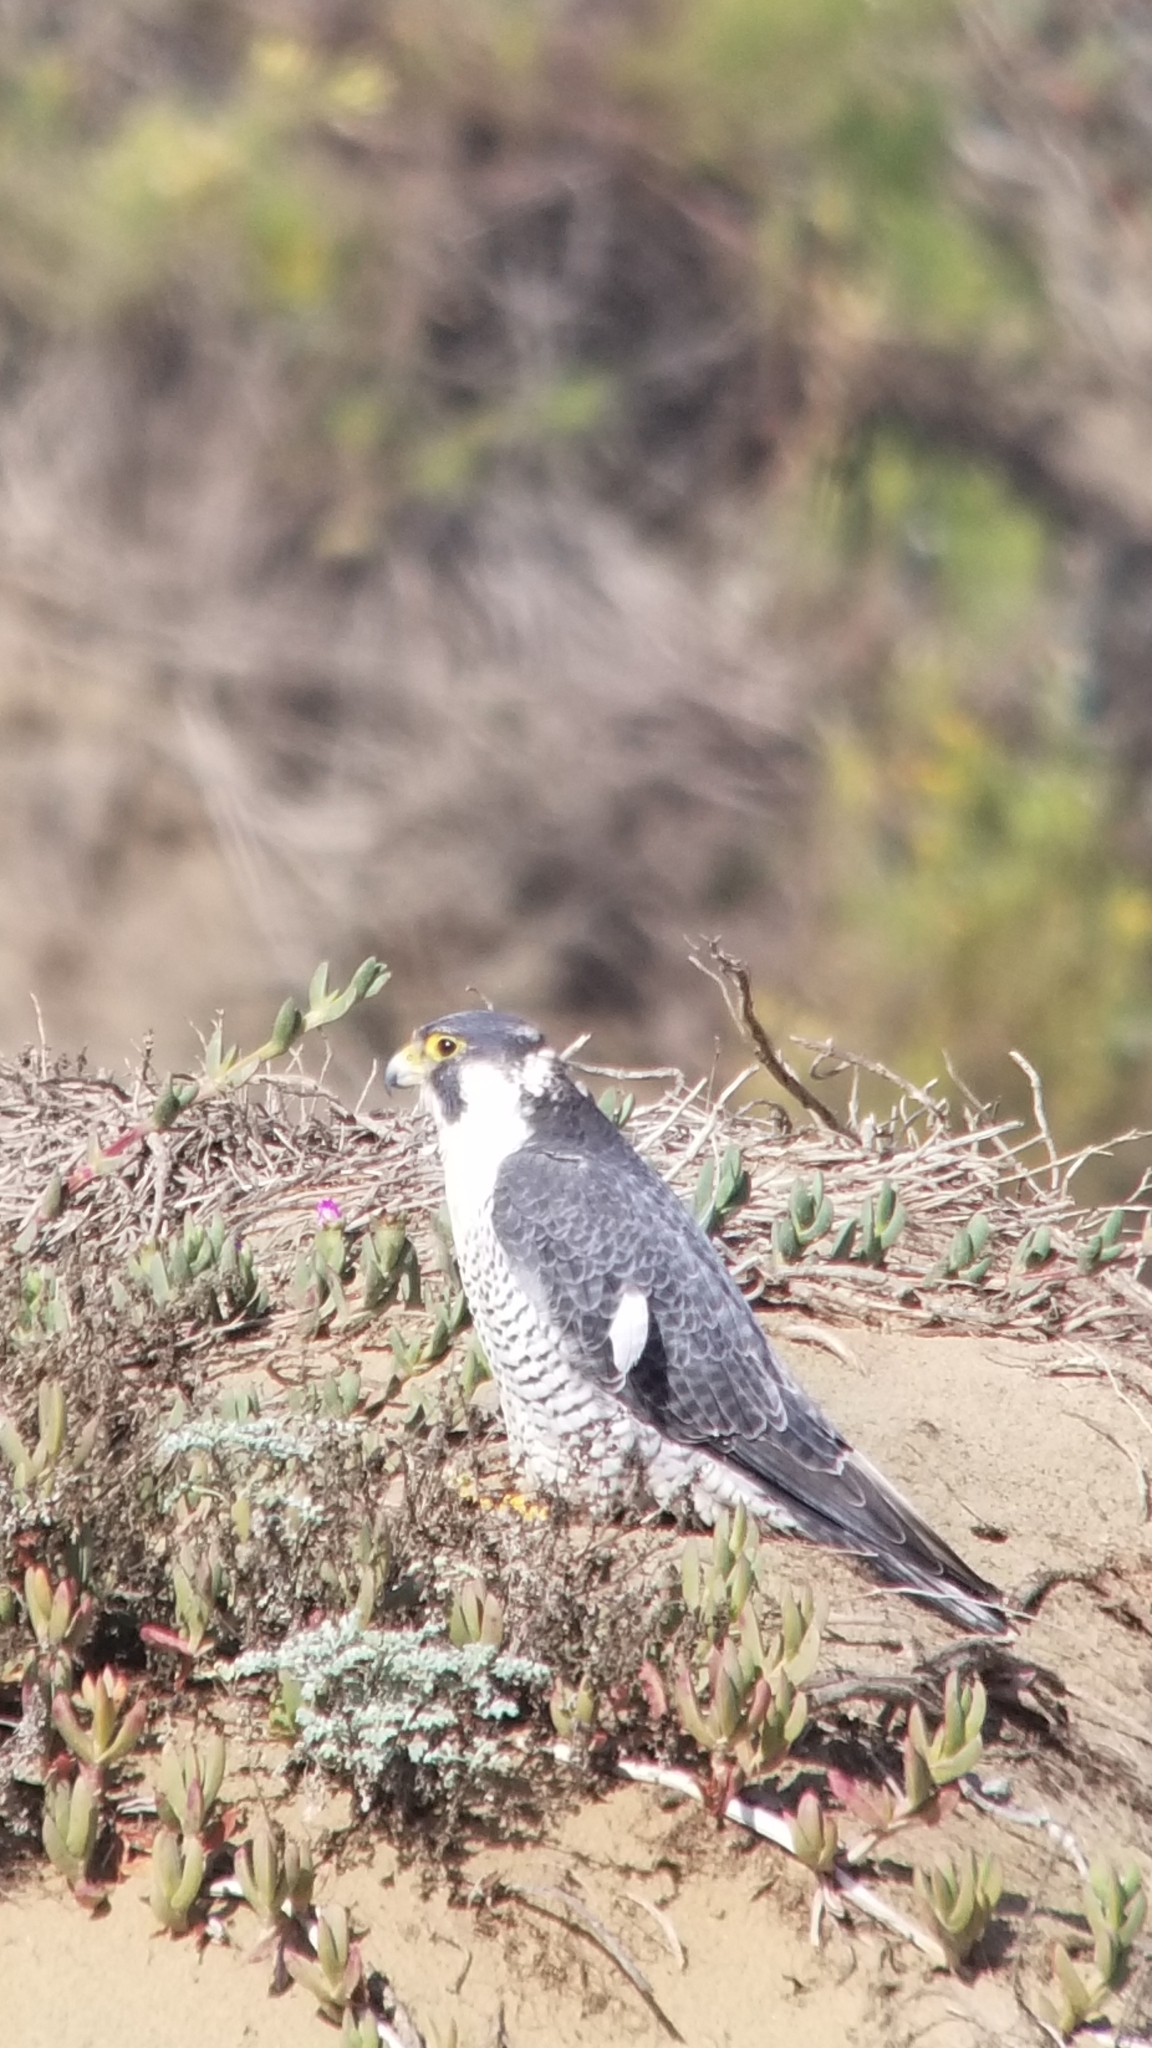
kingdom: Animalia
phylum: Chordata
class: Aves
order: Falconiformes
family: Falconidae
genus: Falco
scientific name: Falco peregrinus
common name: Peregrine falcon
